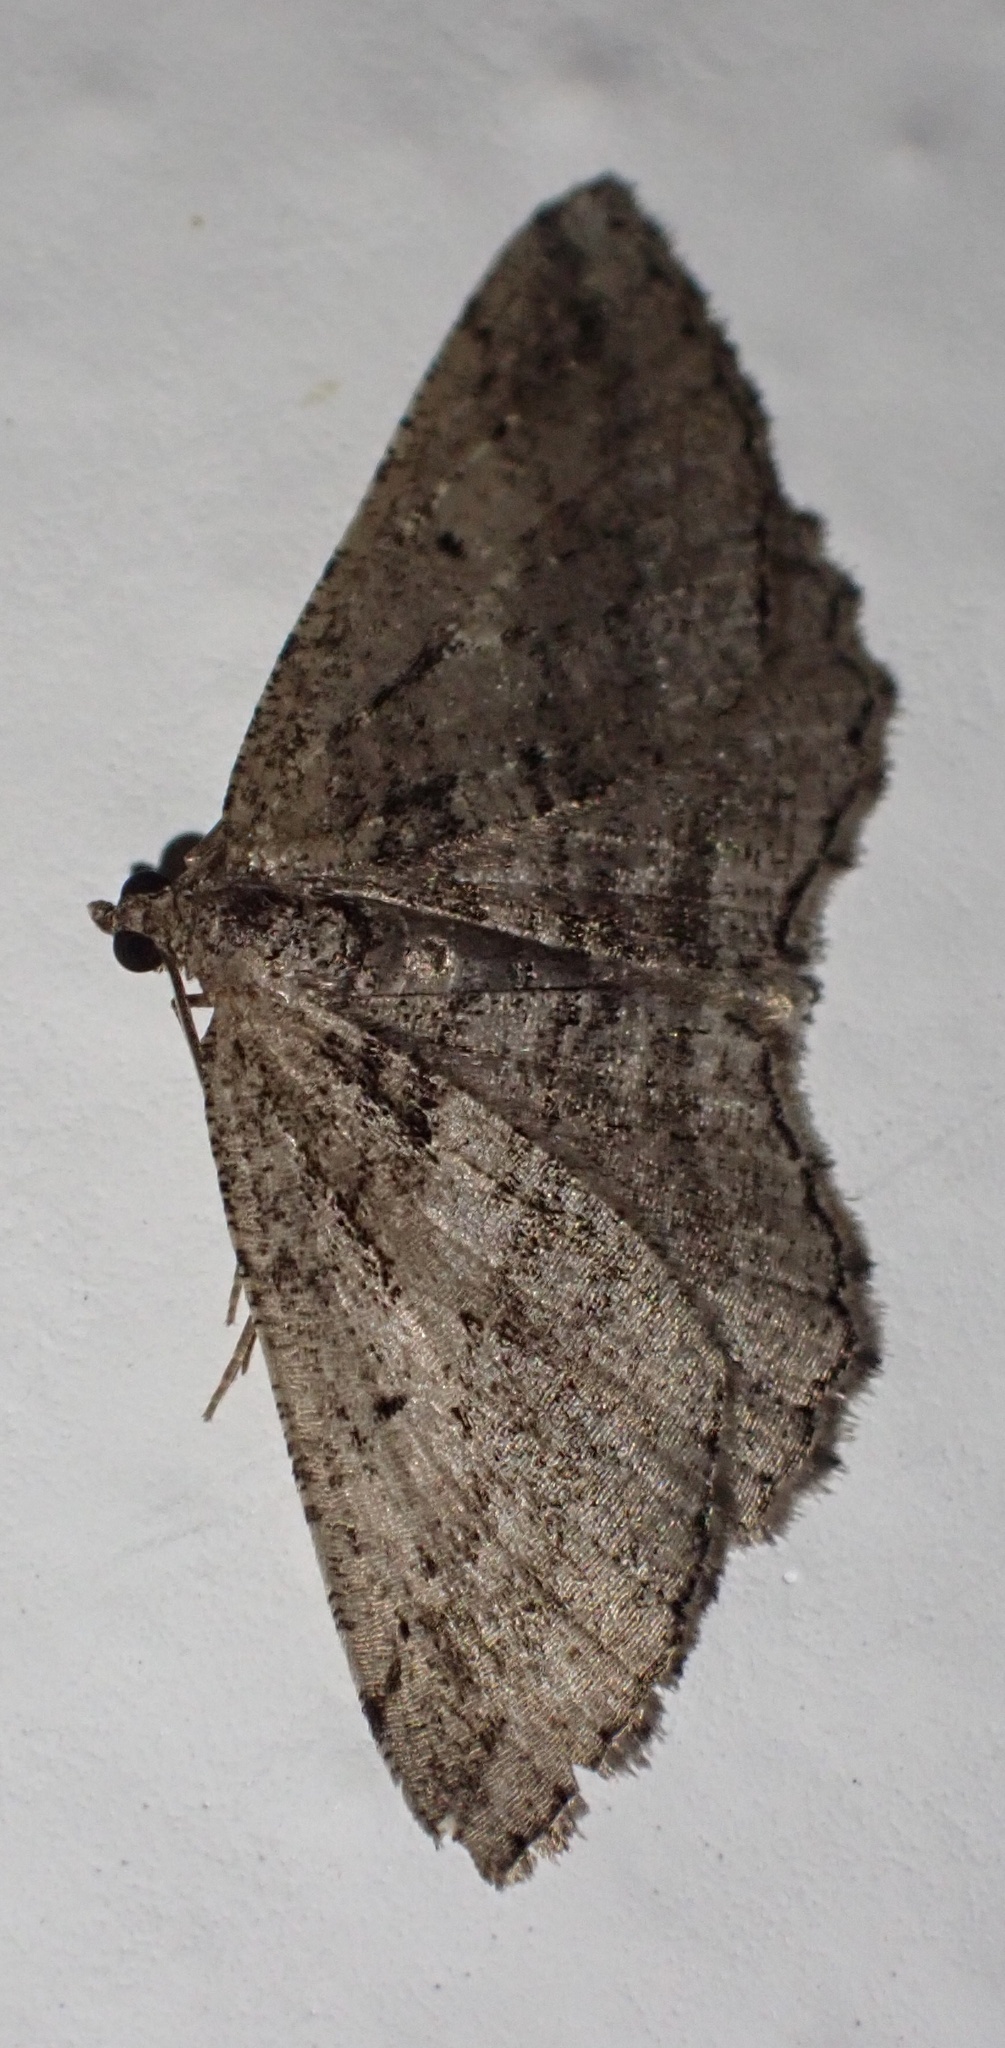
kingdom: Animalia
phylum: Arthropoda
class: Insecta
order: Lepidoptera
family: Geometridae
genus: Rhoptria
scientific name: Rhoptria asperaria
